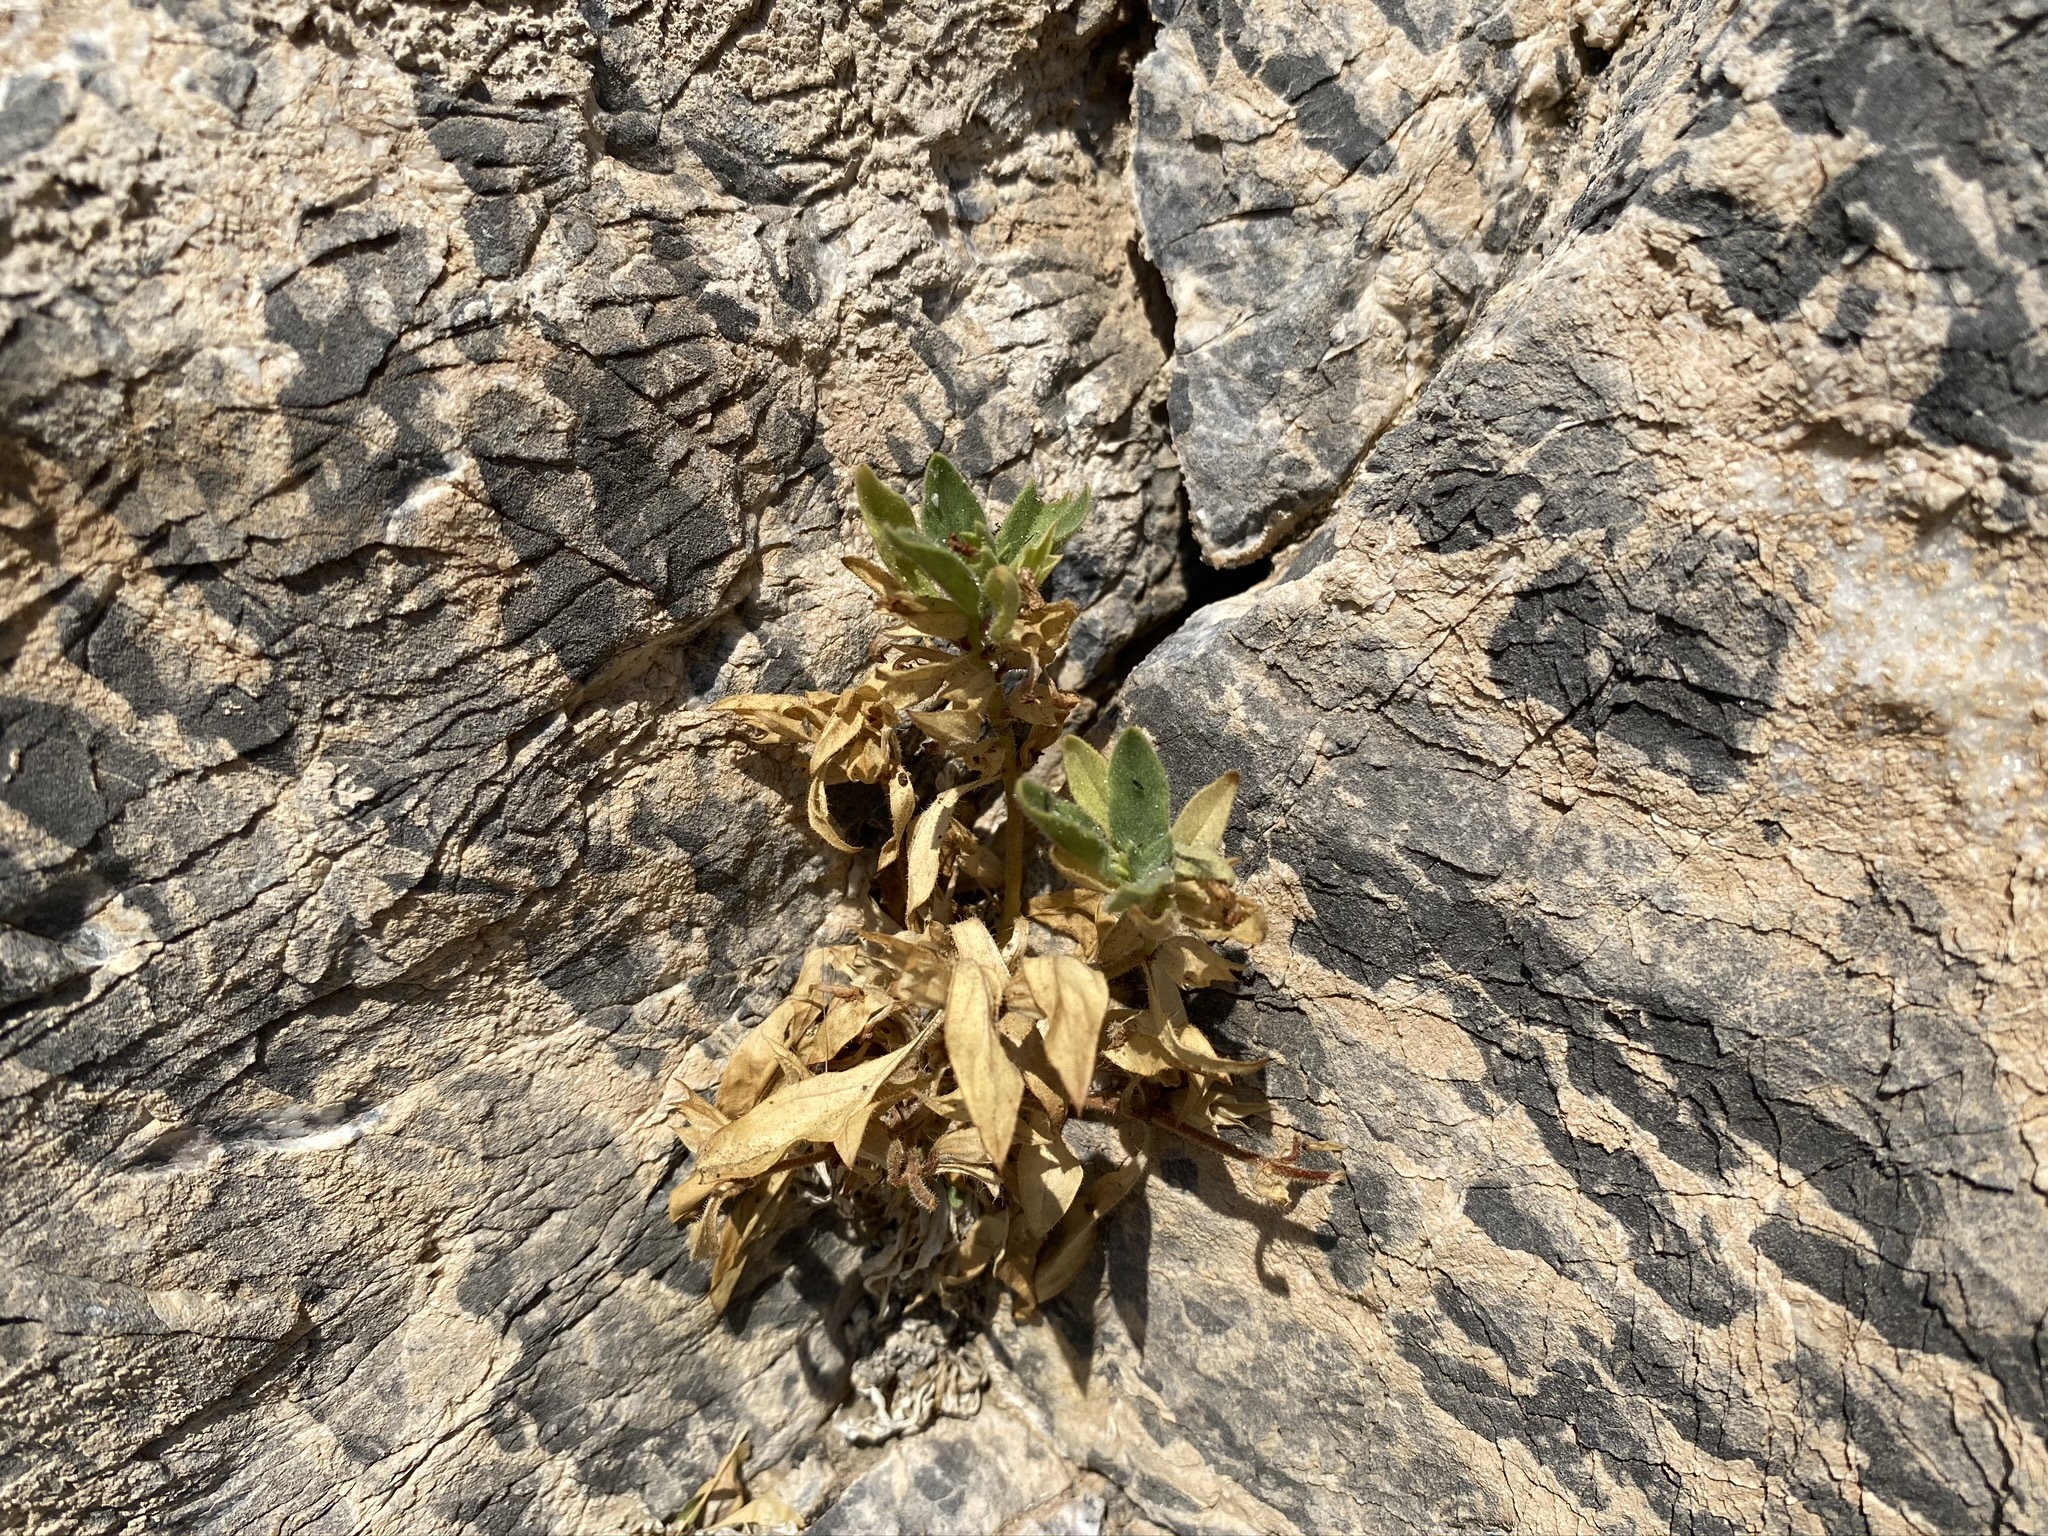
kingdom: Plantae
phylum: Tracheophyta
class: Magnoliopsida
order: Lamiales
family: Phrymaceae
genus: Diplacus
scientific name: Diplacus rupicola
